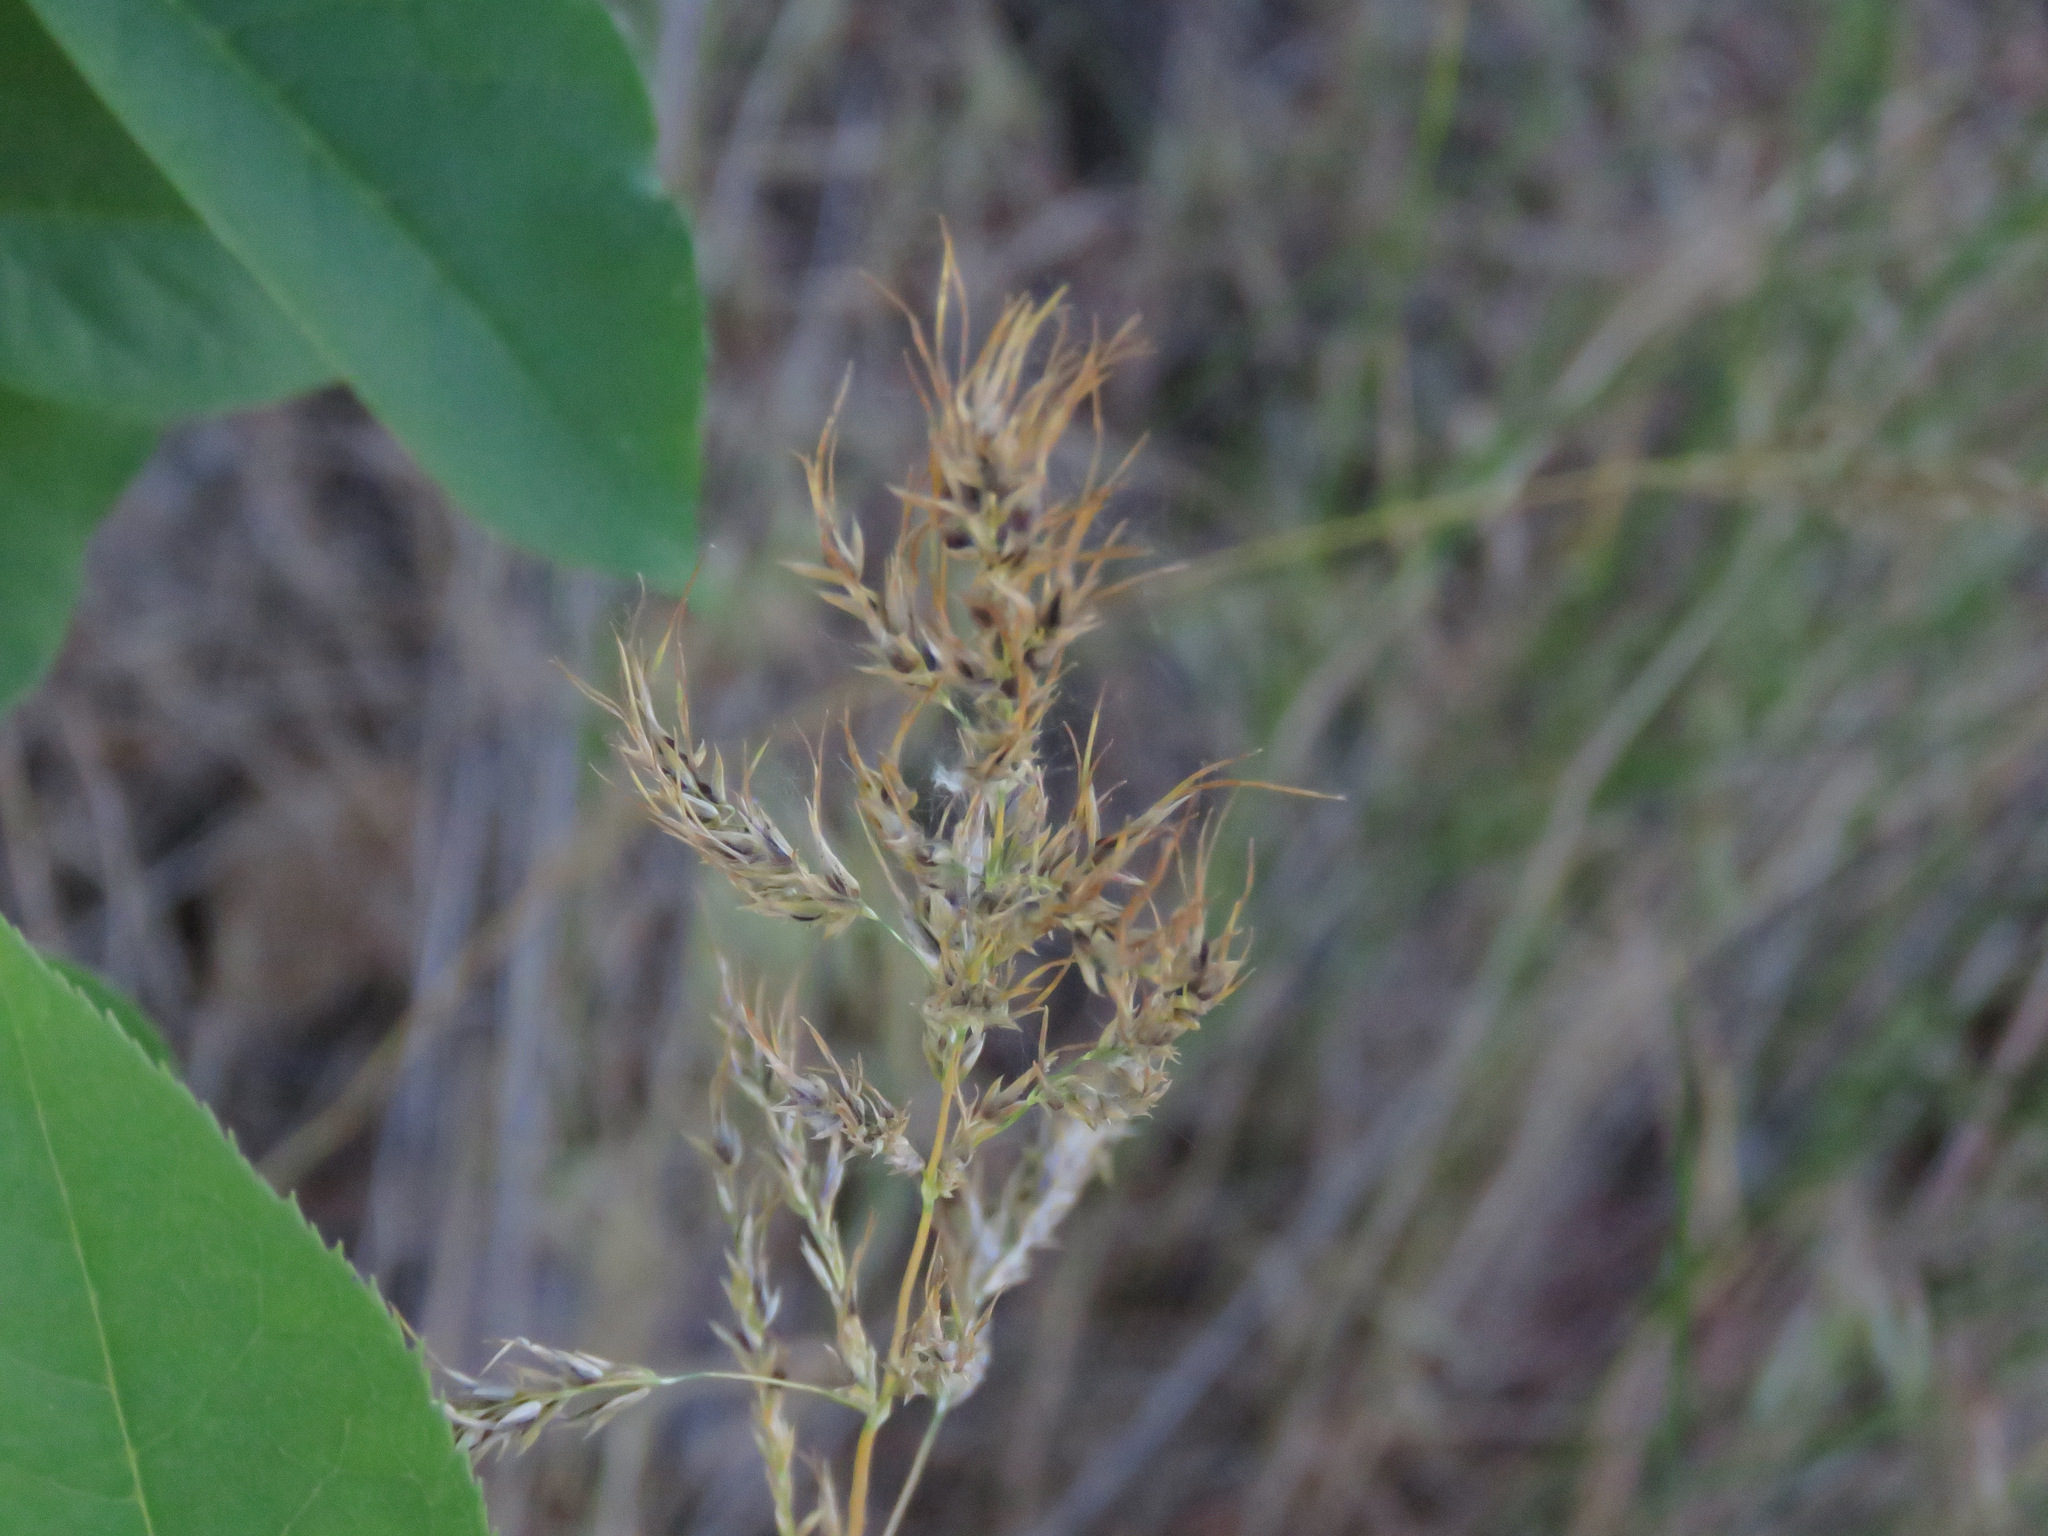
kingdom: Plantae
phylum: Tracheophyta
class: Liliopsida
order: Poales
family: Poaceae
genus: Poa
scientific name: Poa bulbosa
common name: Bulbous bluegrass
